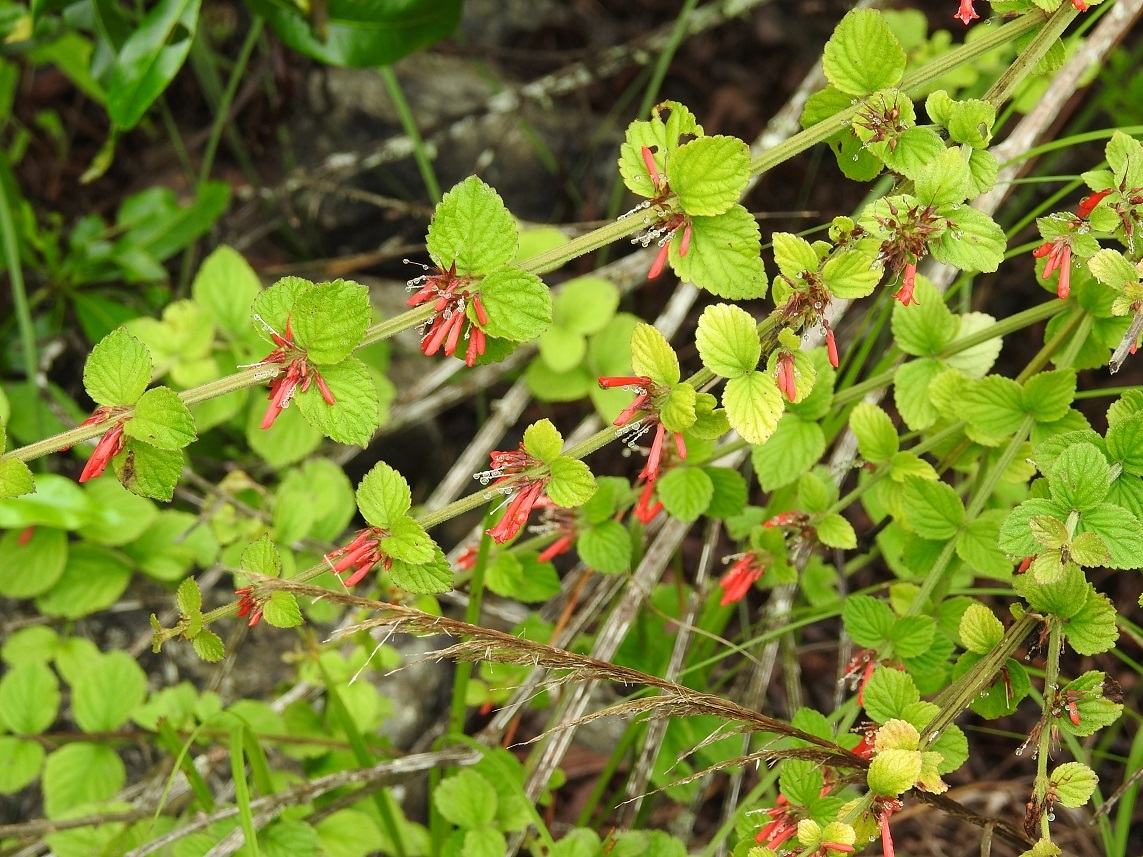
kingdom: Plantae
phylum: Tracheophyta
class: Magnoliopsida
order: Lamiales
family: Plantaginaceae
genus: Russelia
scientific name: Russelia verticillata
